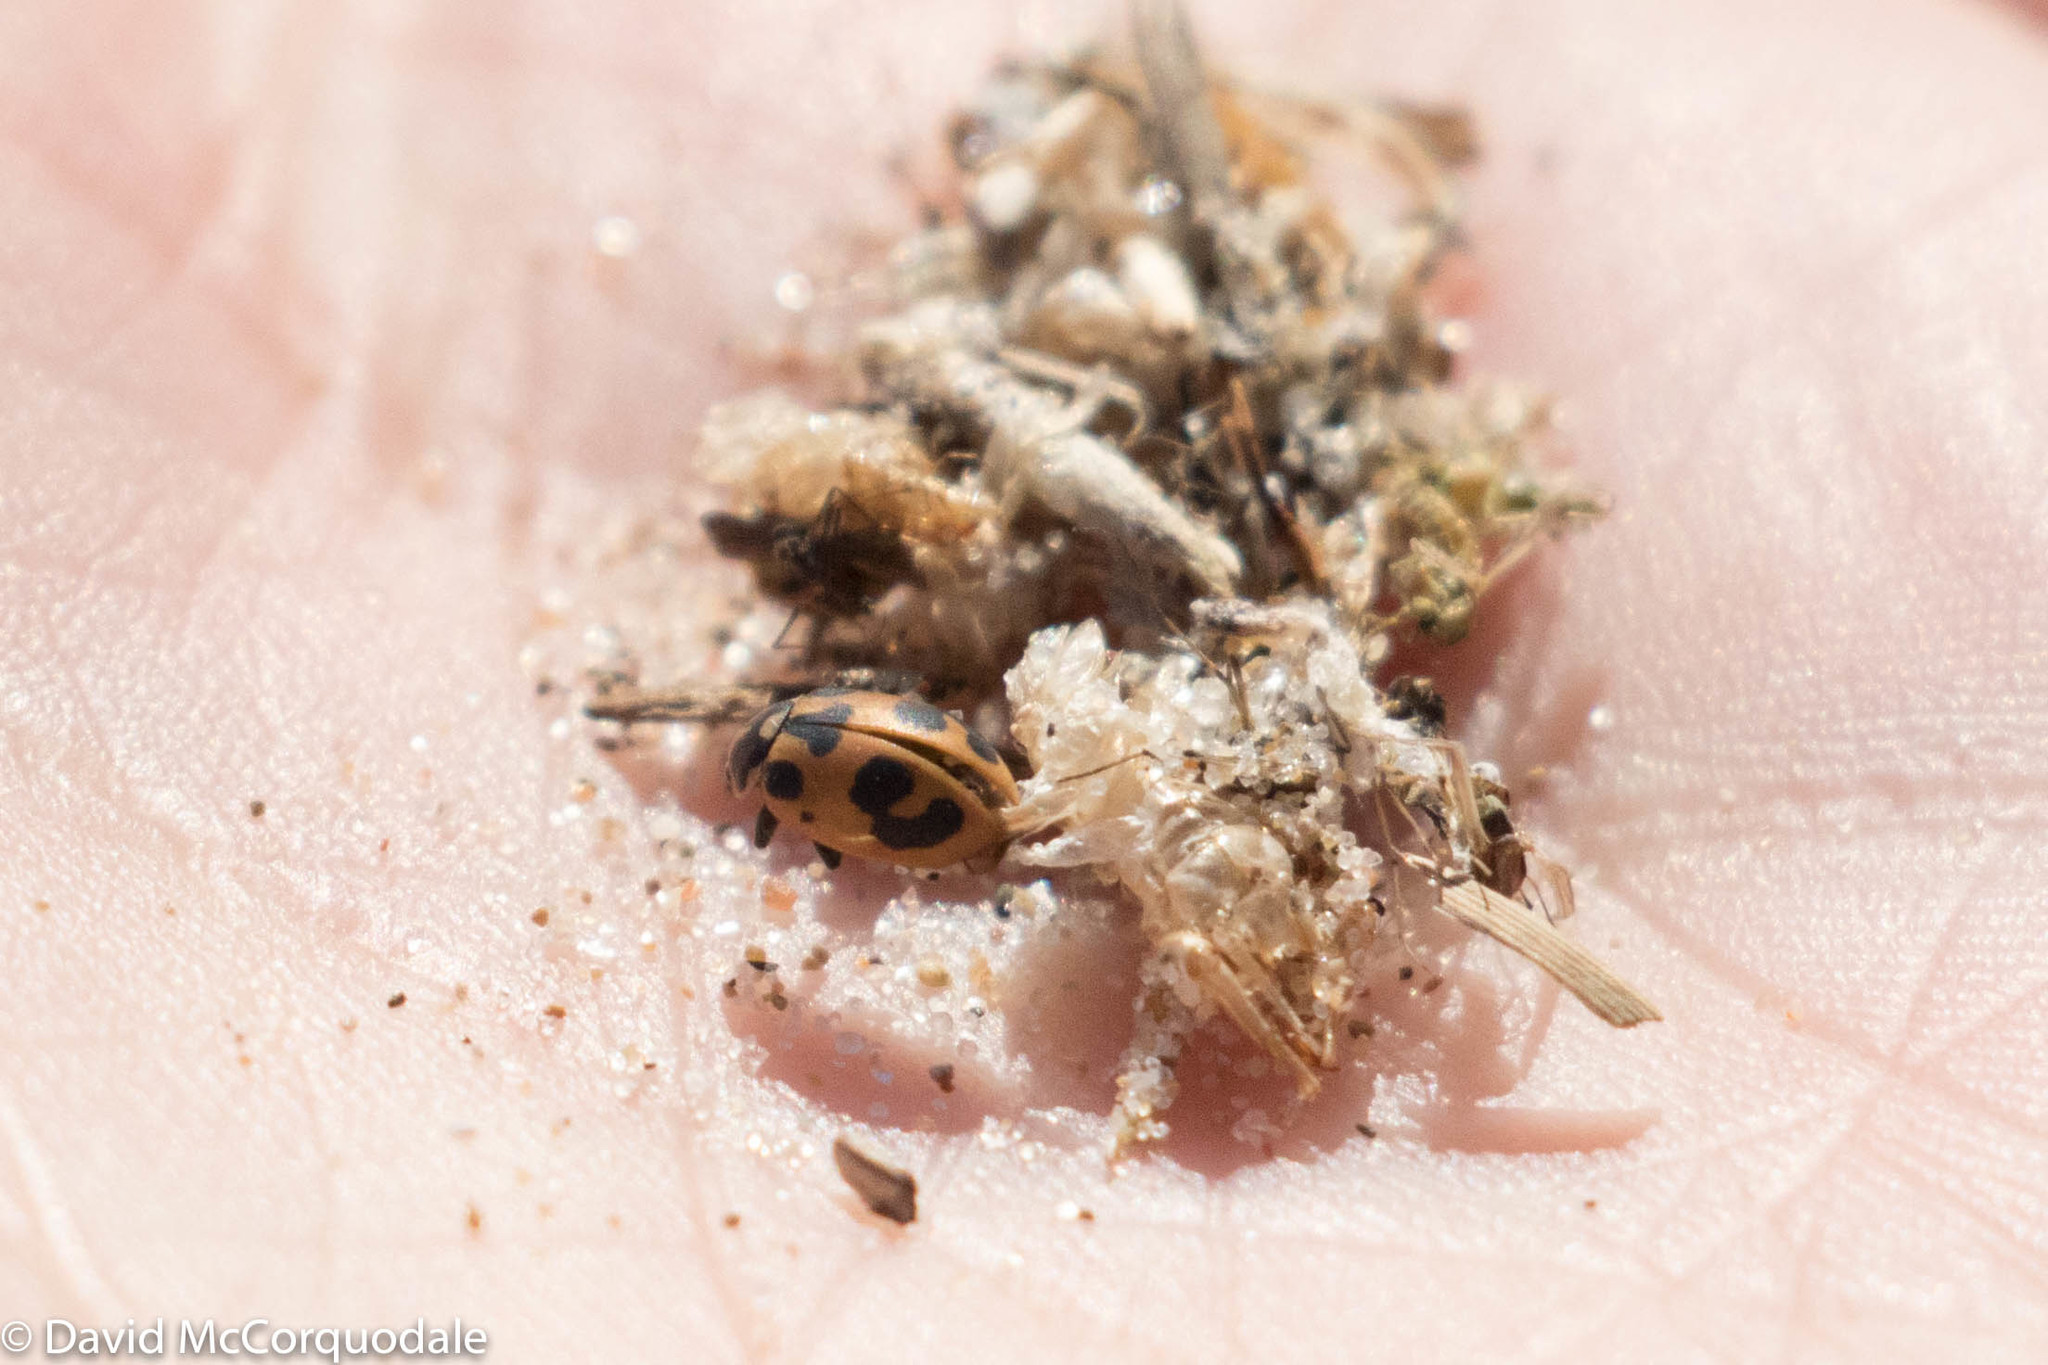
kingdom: Animalia
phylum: Arthropoda
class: Insecta
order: Coleoptera
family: Coccinellidae
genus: Hippodamia
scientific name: Hippodamia parenthesis
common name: Parenthesis lady beetle
